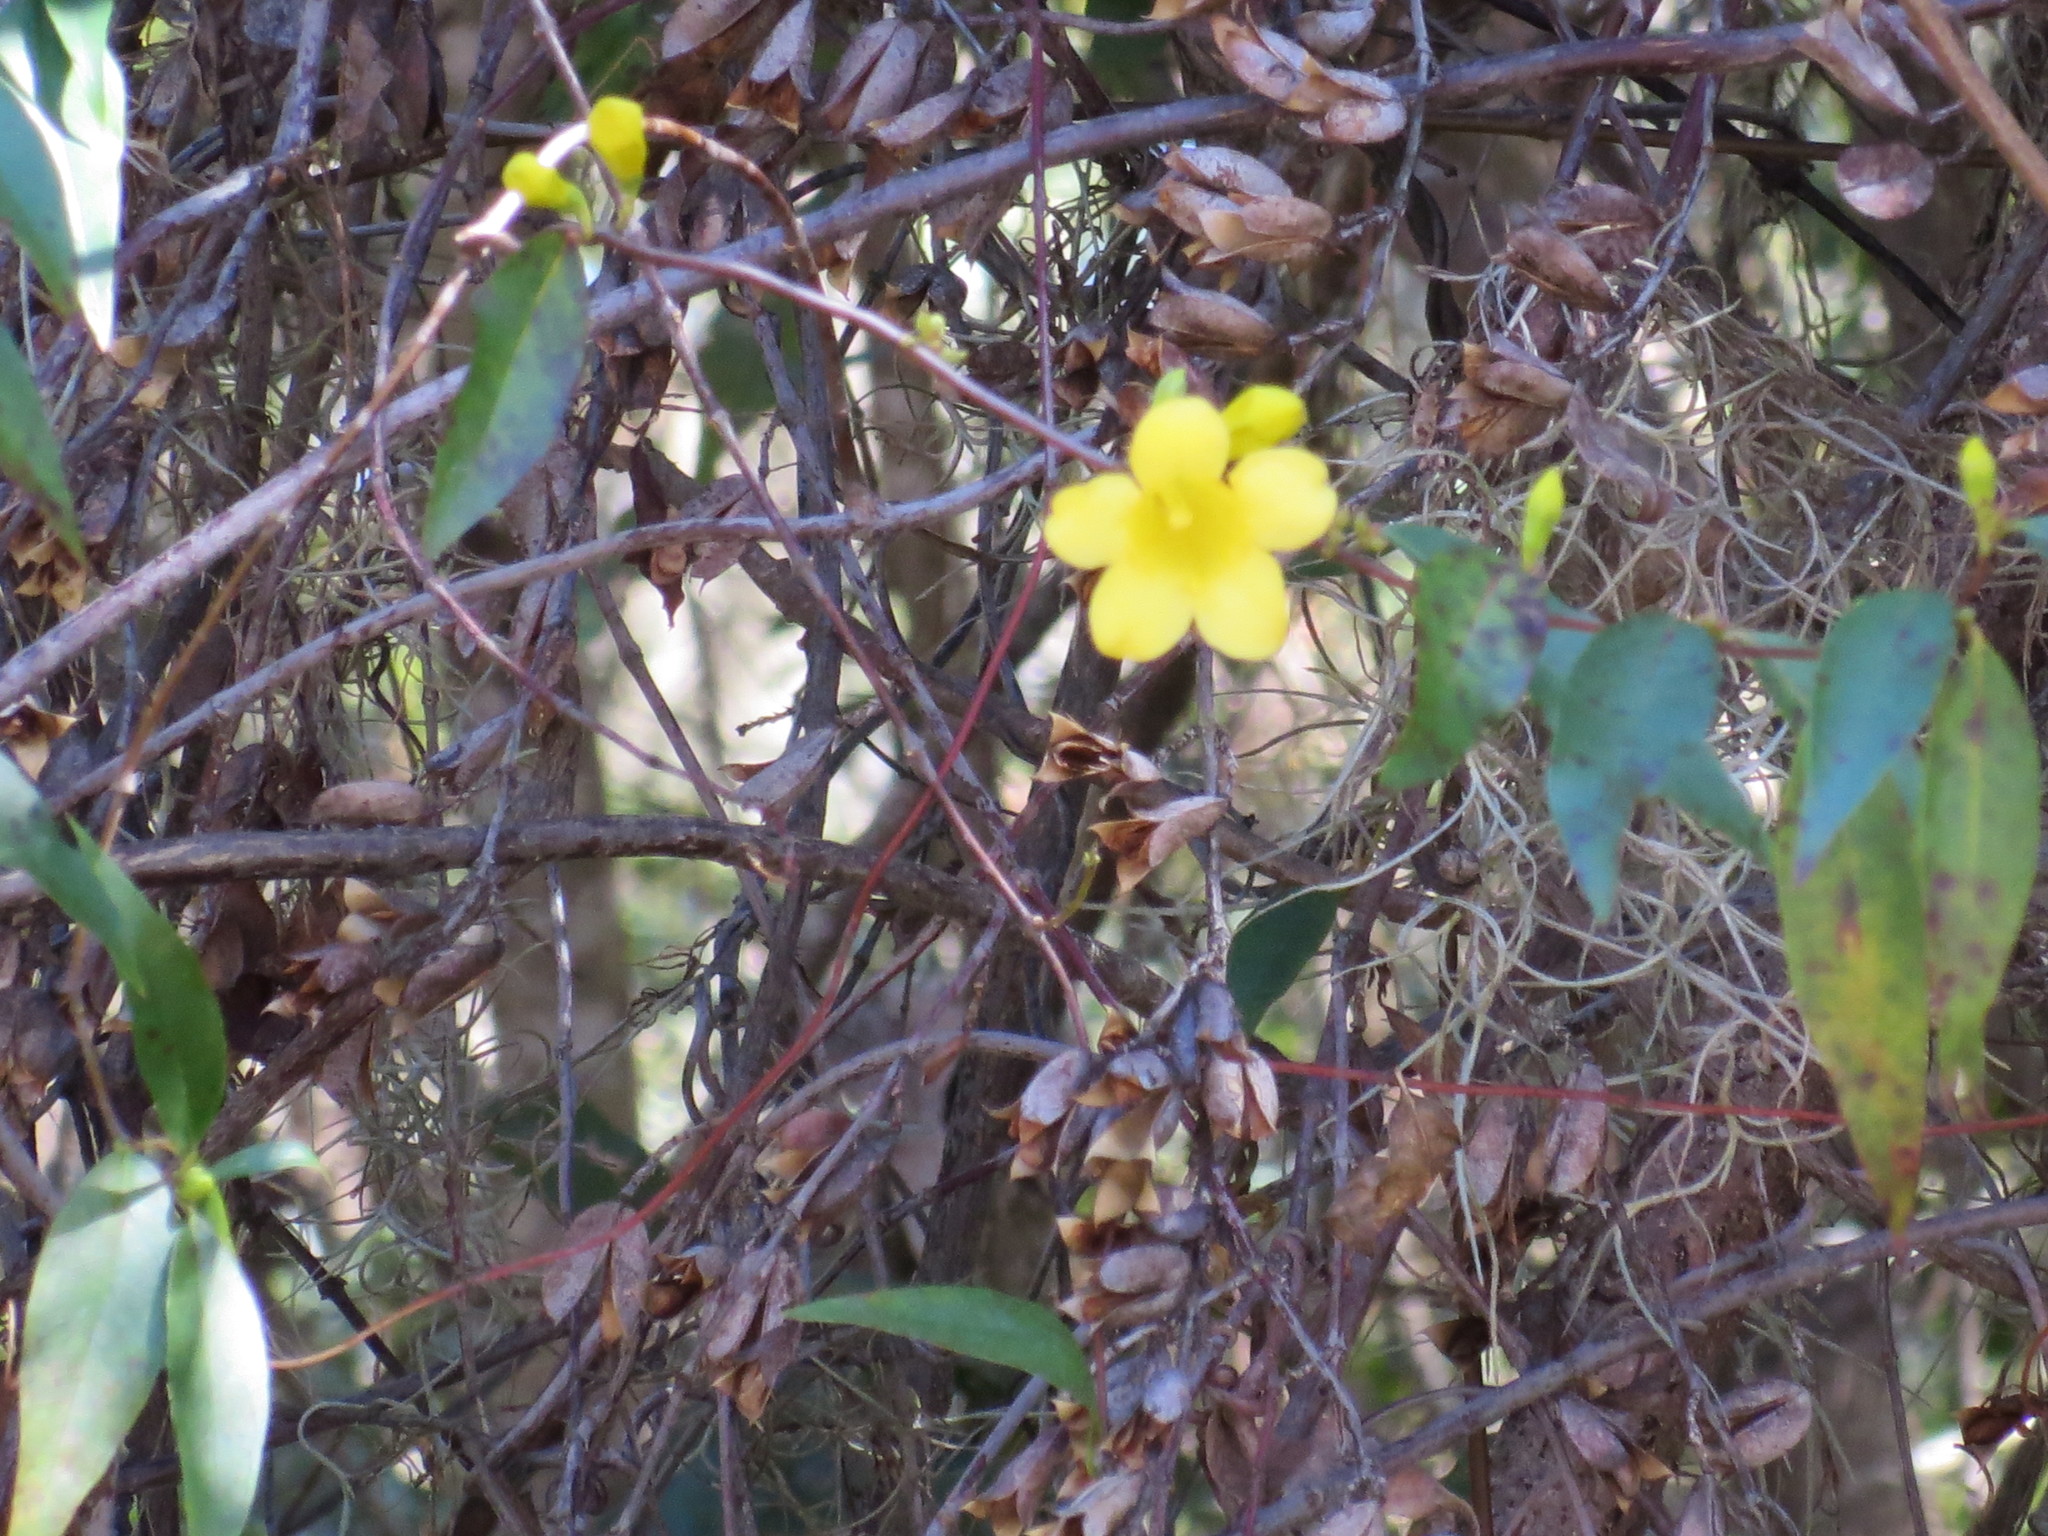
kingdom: Plantae
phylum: Tracheophyta
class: Magnoliopsida
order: Gentianales
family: Gelsemiaceae
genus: Gelsemium
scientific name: Gelsemium sempervirens
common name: Carolina-jasmine
